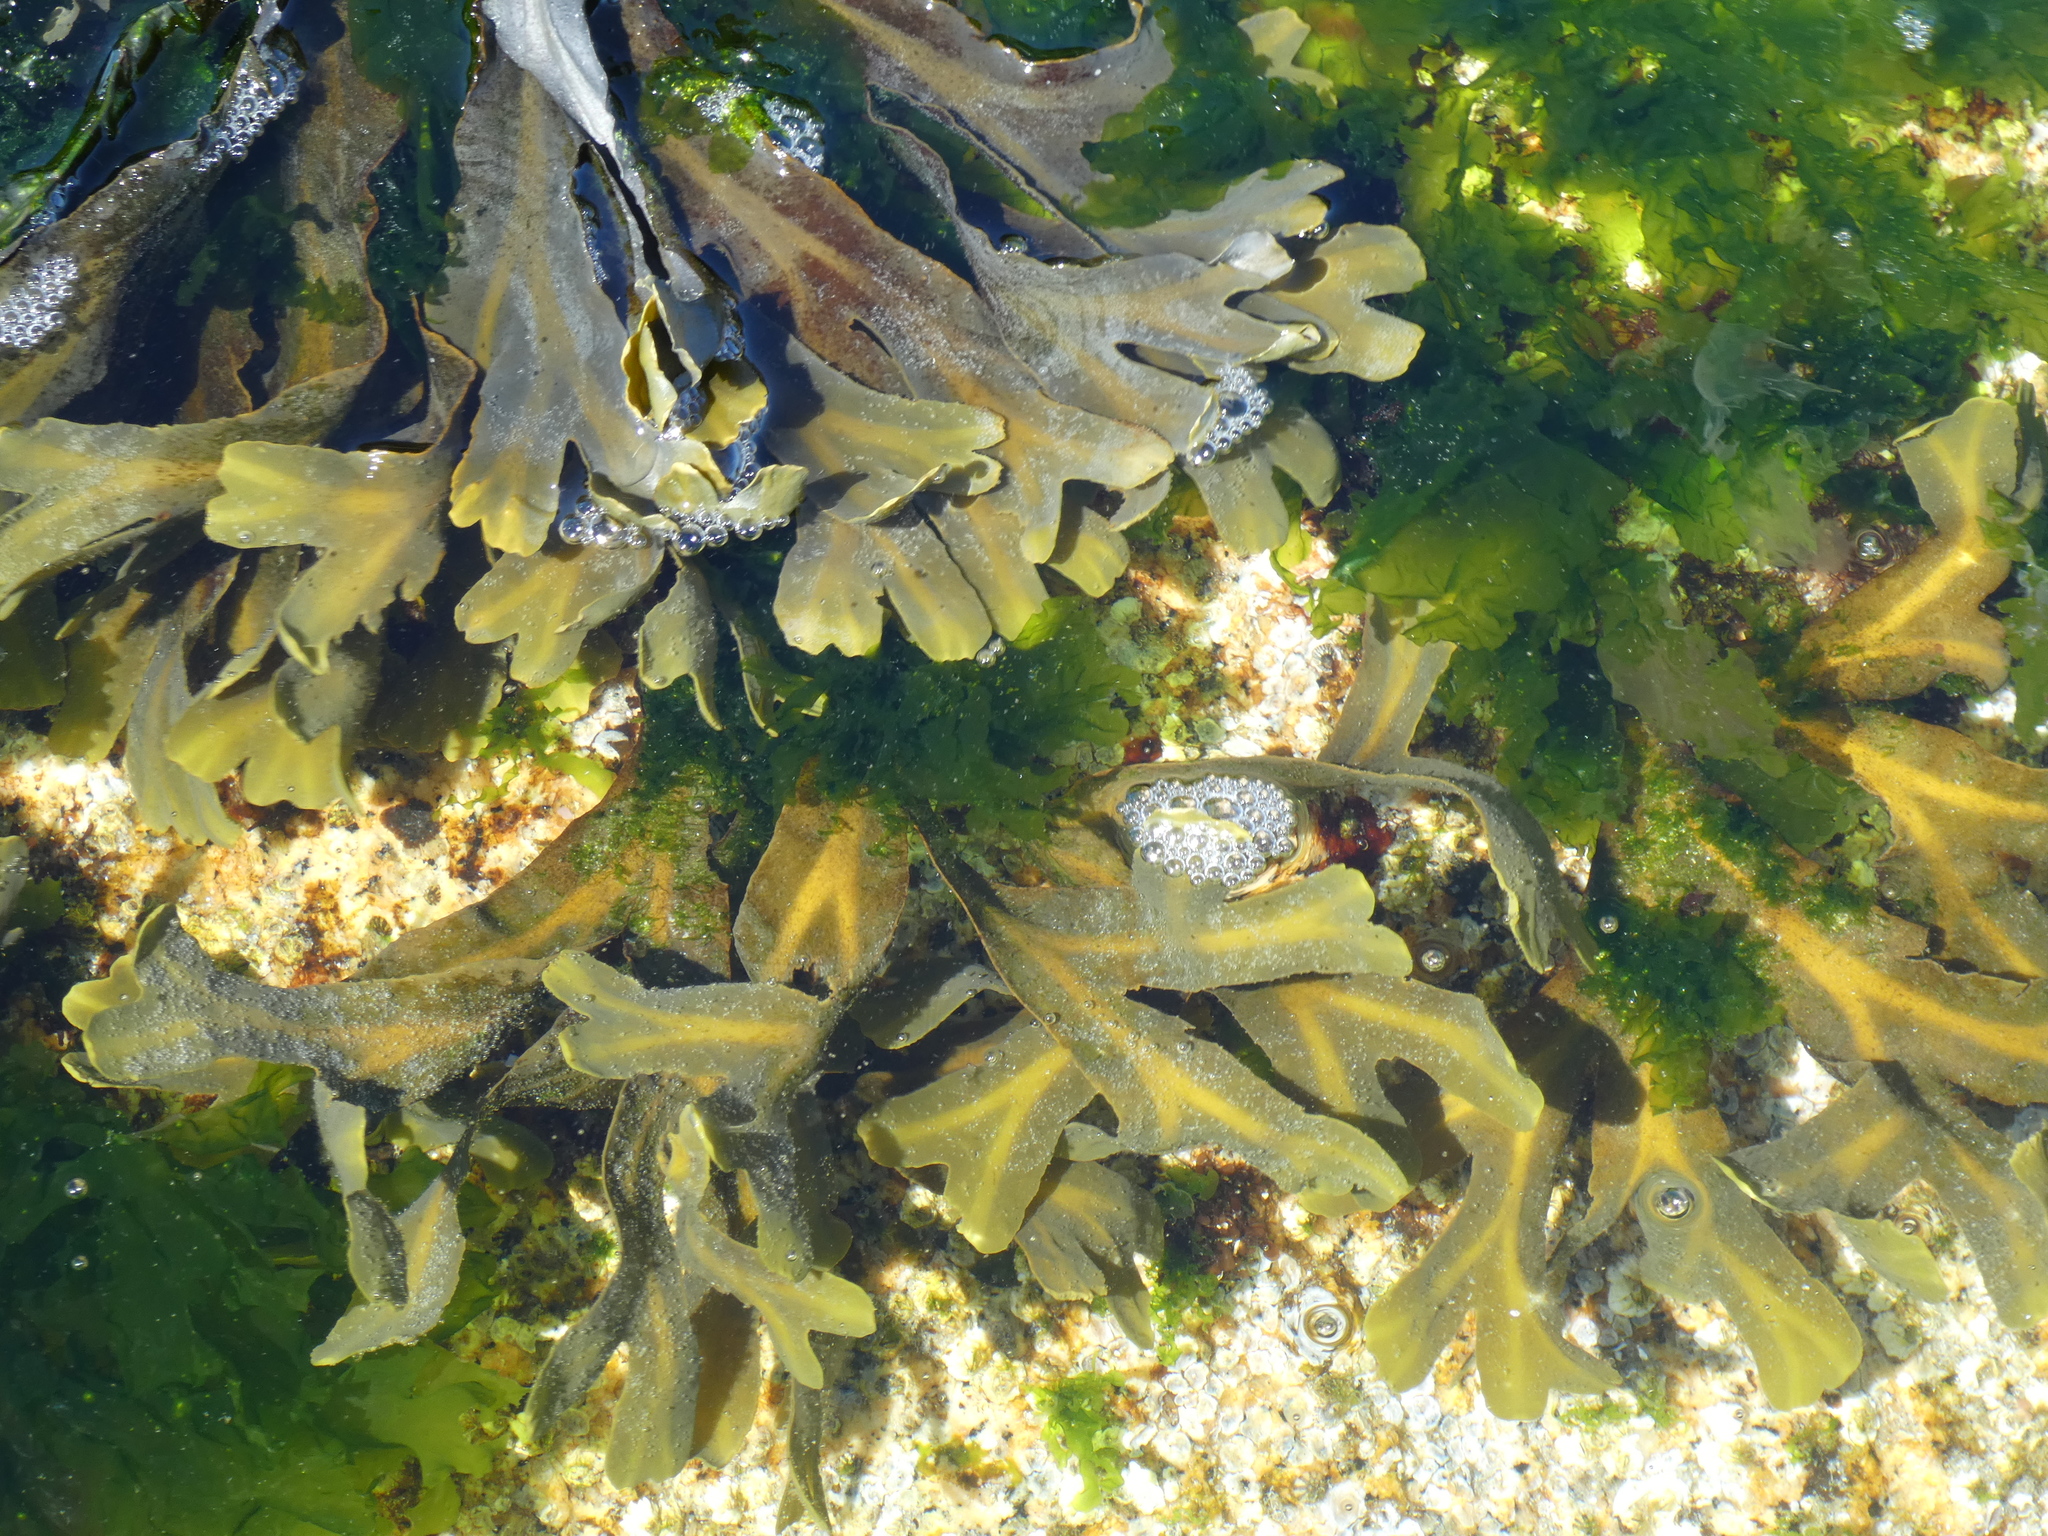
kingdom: Chromista
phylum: Ochrophyta
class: Phaeophyceae
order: Fucales
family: Fucaceae
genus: Fucus
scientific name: Fucus distichus
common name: Rockweed
